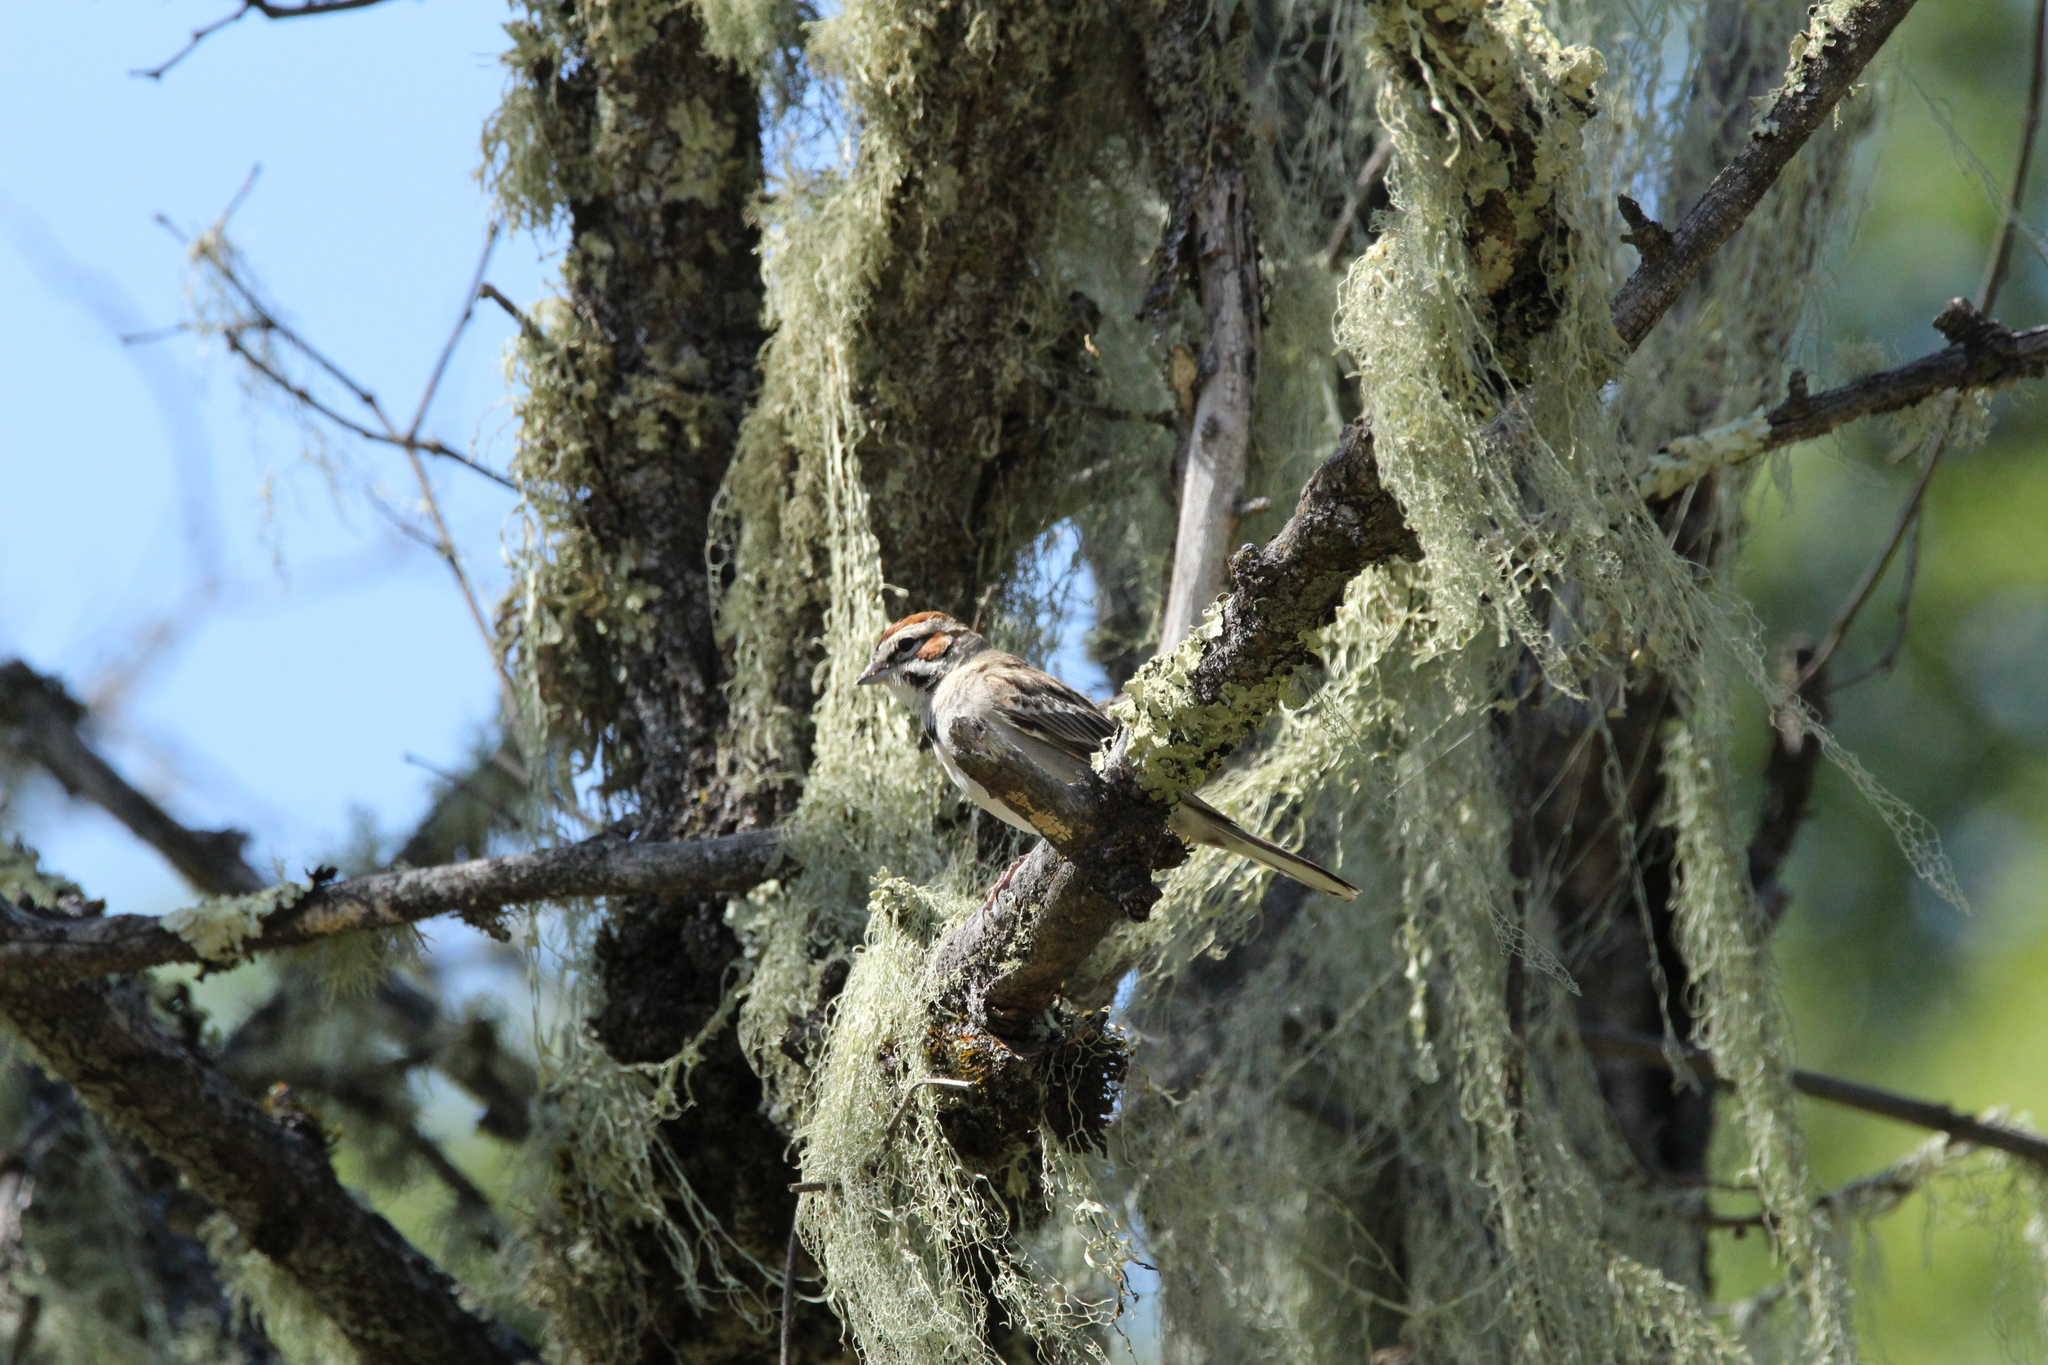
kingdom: Animalia
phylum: Chordata
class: Aves
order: Passeriformes
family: Passerellidae
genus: Chondestes
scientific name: Chondestes grammacus
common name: Lark sparrow
